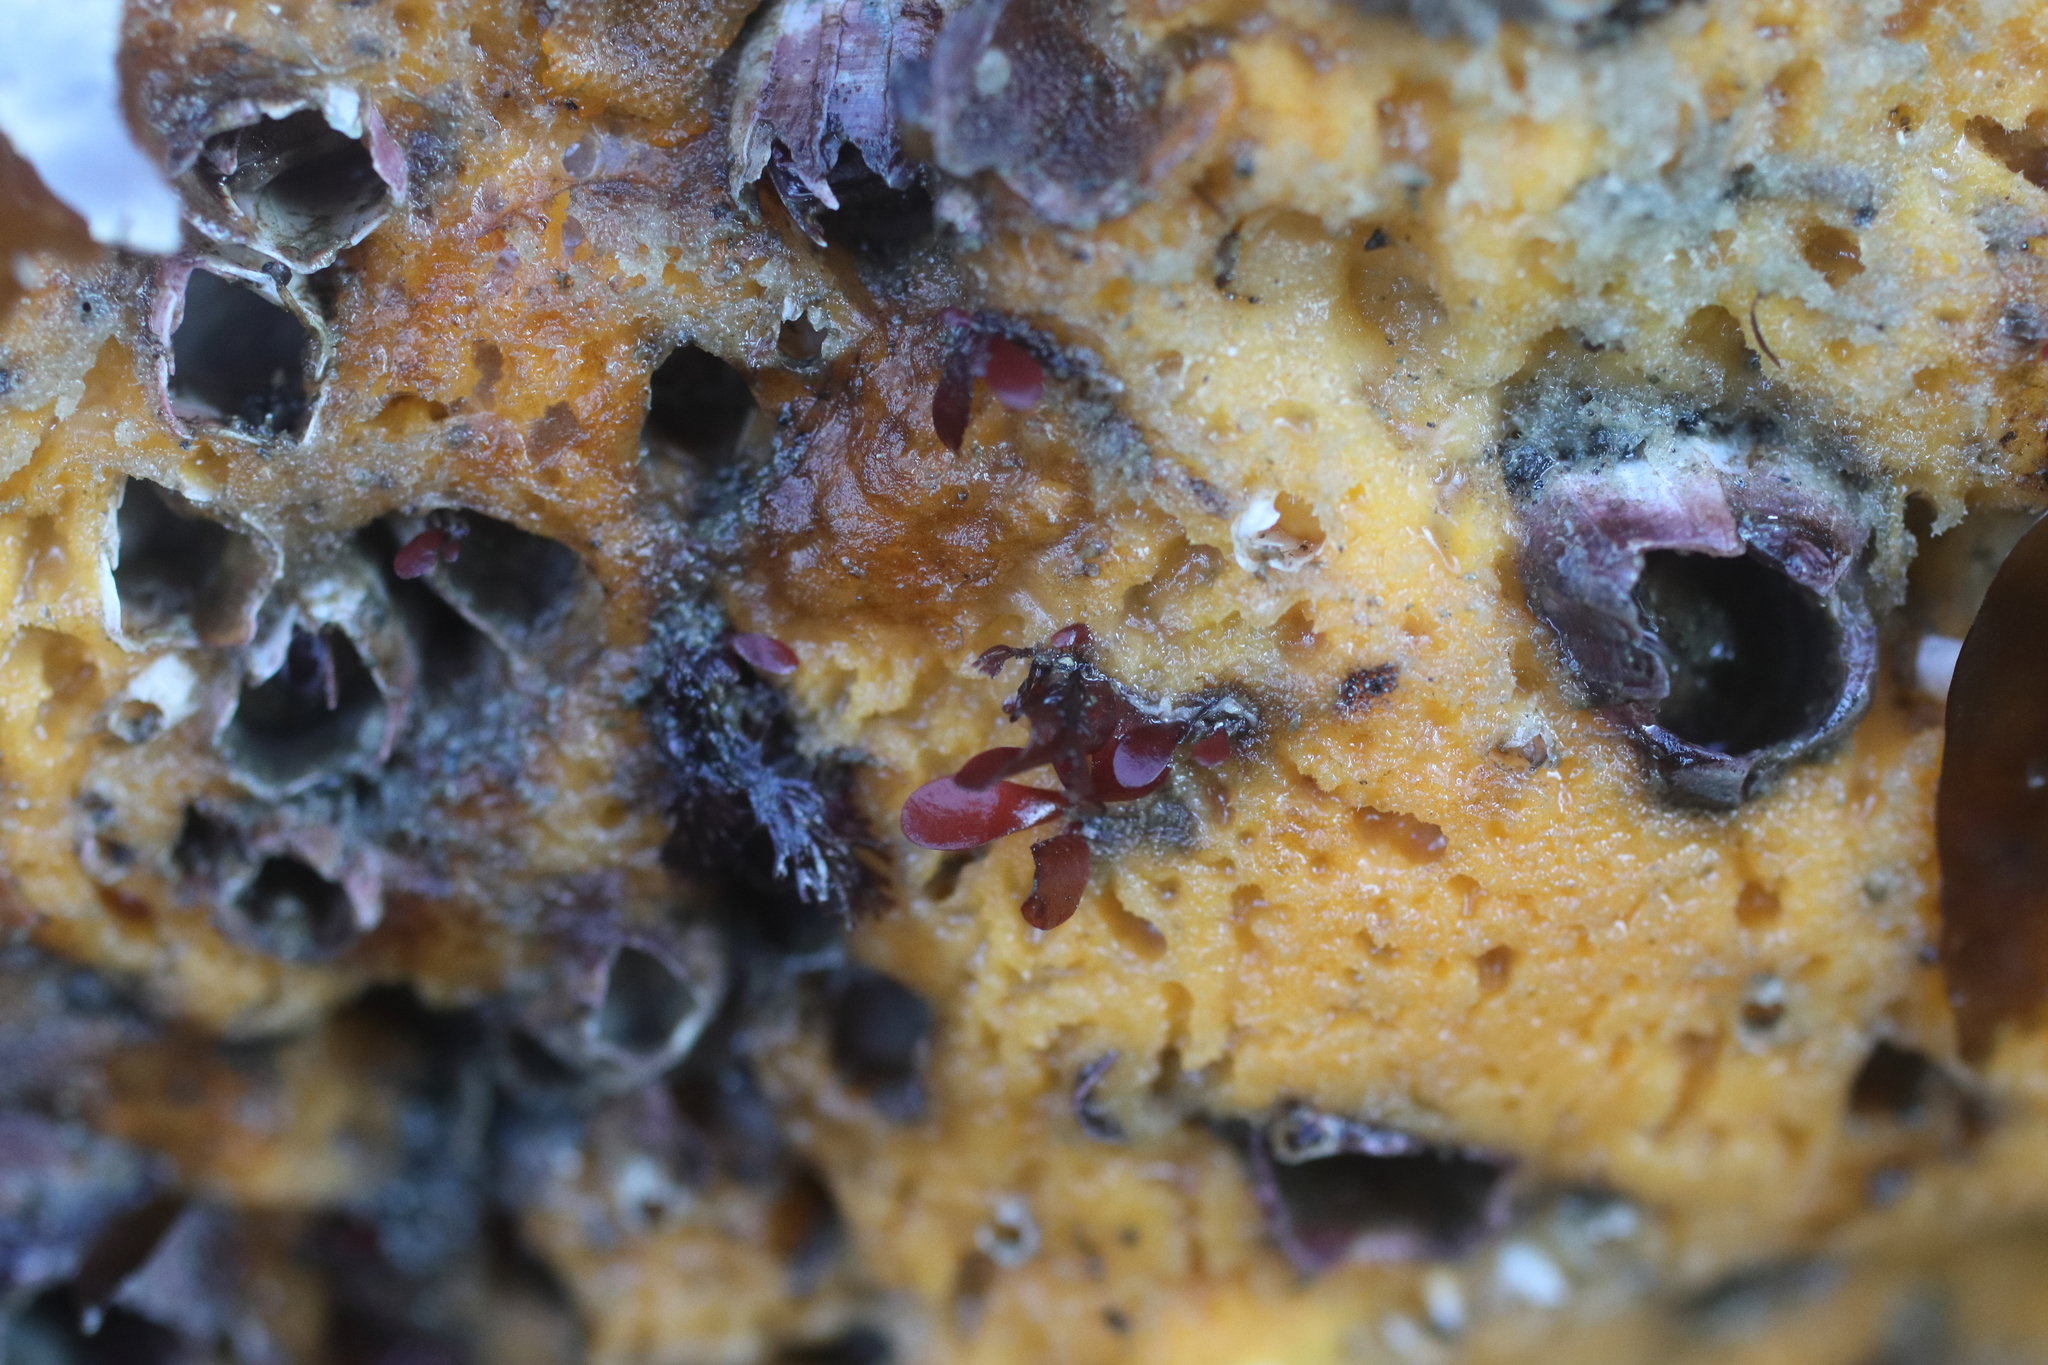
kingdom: Animalia
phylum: Porifera
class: Demospongiae
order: Suberitida
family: Halichondriidae
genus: Halichondria
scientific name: Halichondria panicea
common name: Breadcrumb sponge
